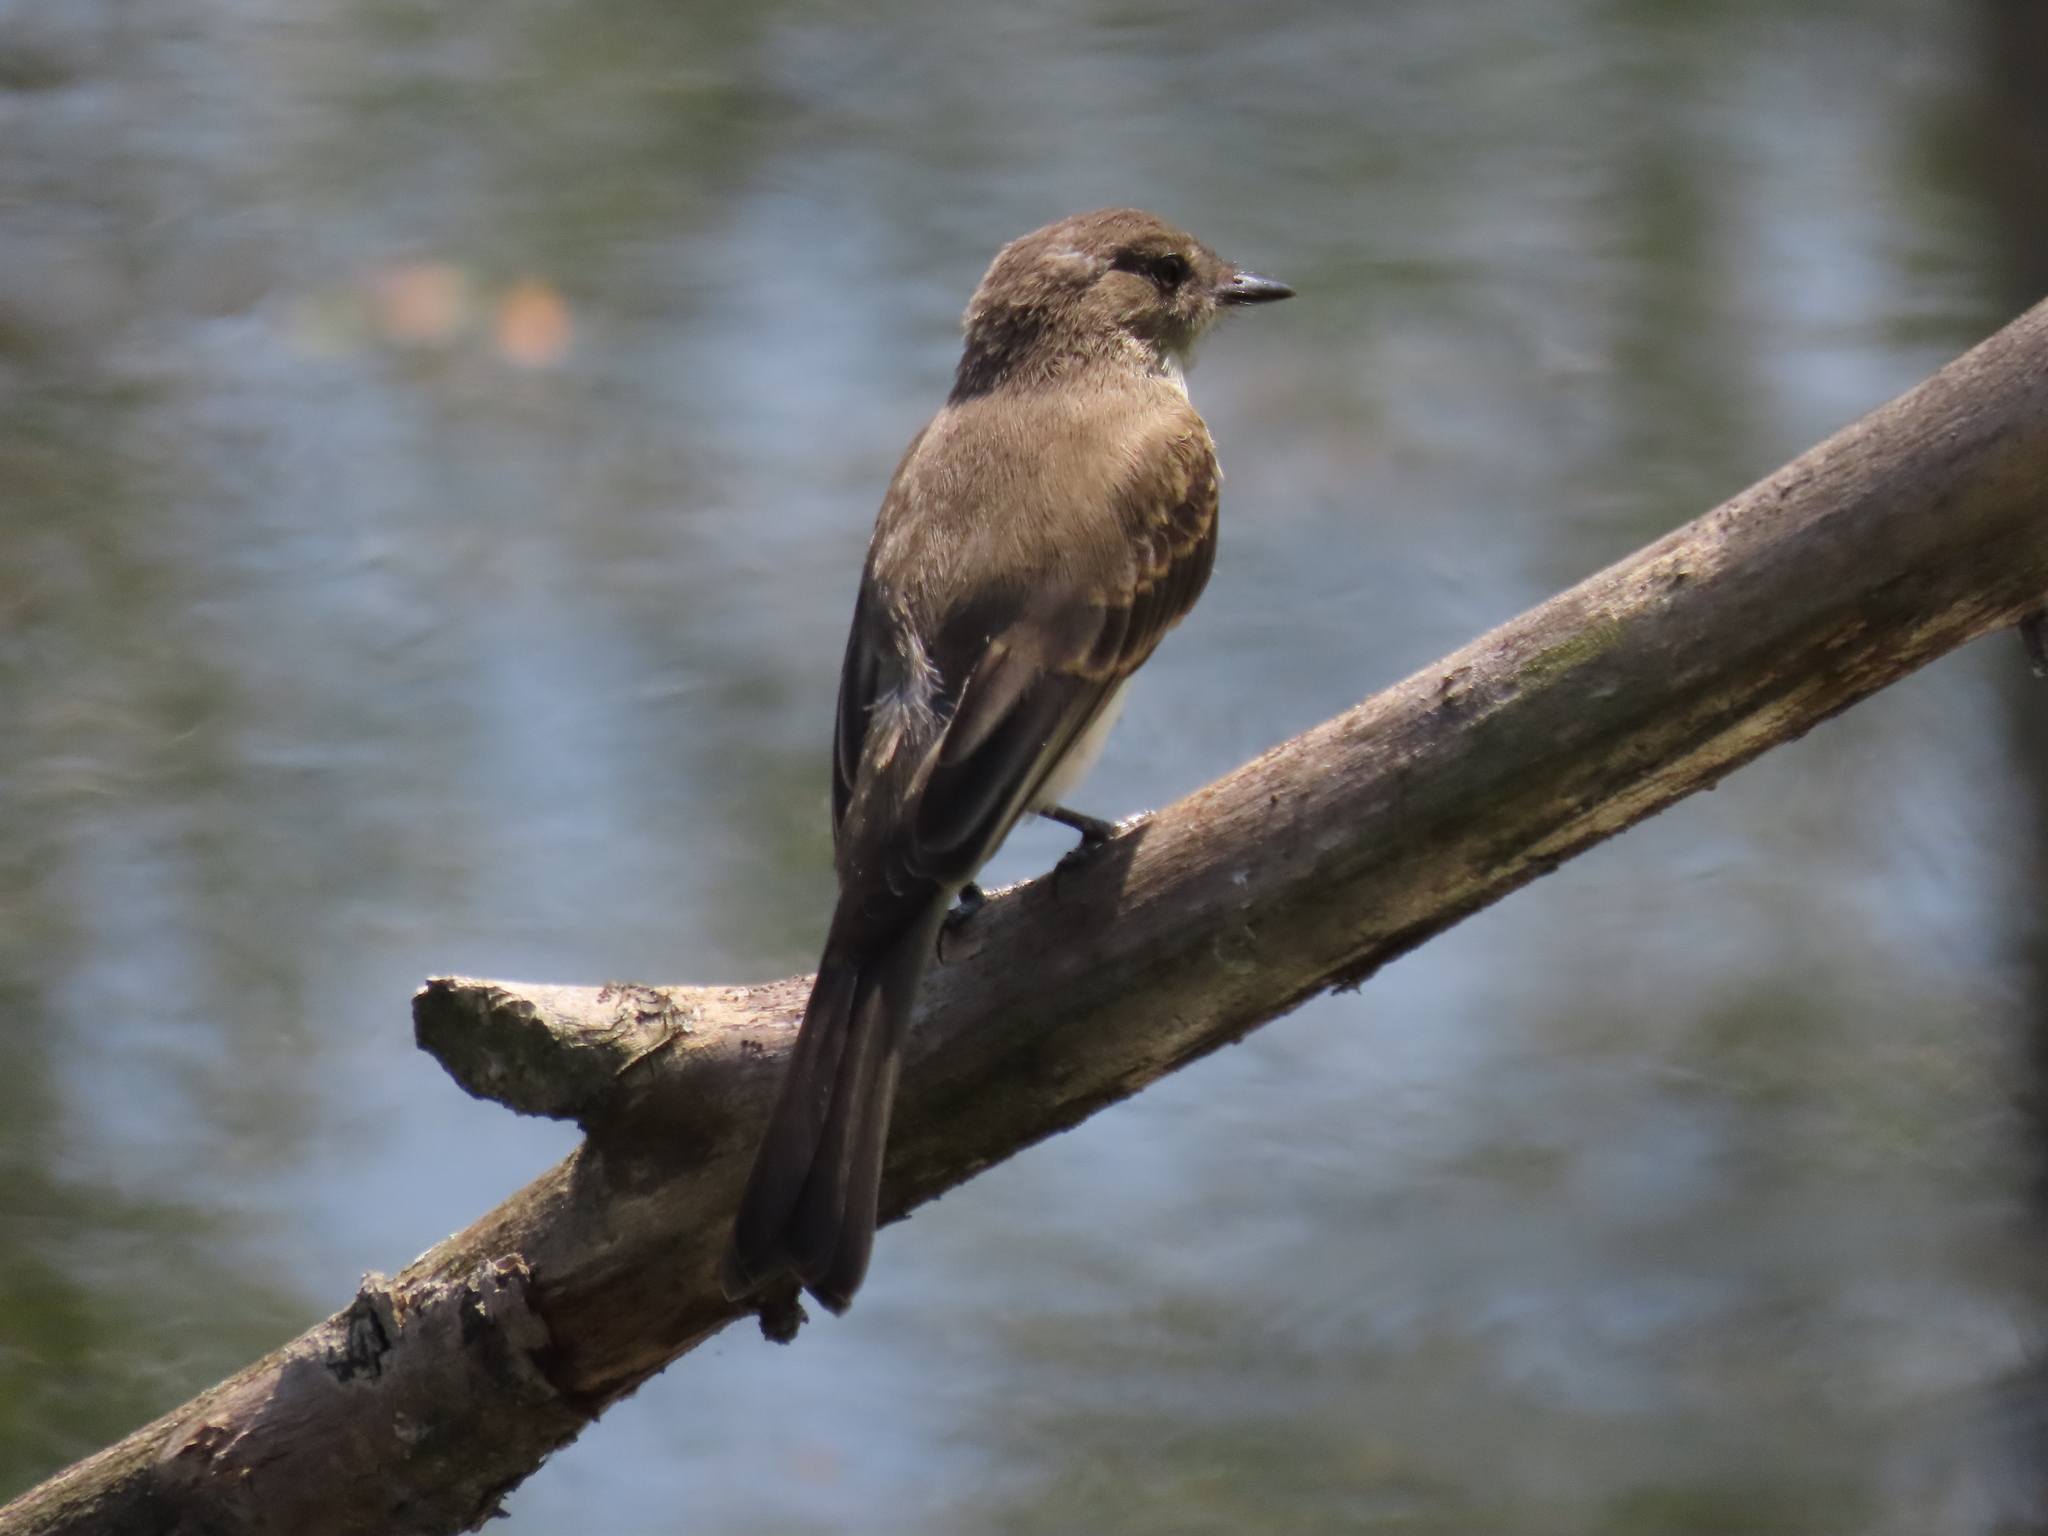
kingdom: Animalia
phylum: Chordata
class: Aves
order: Passeriformes
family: Tyrannidae
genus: Sayornis
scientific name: Sayornis phoebe
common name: Eastern phoebe
